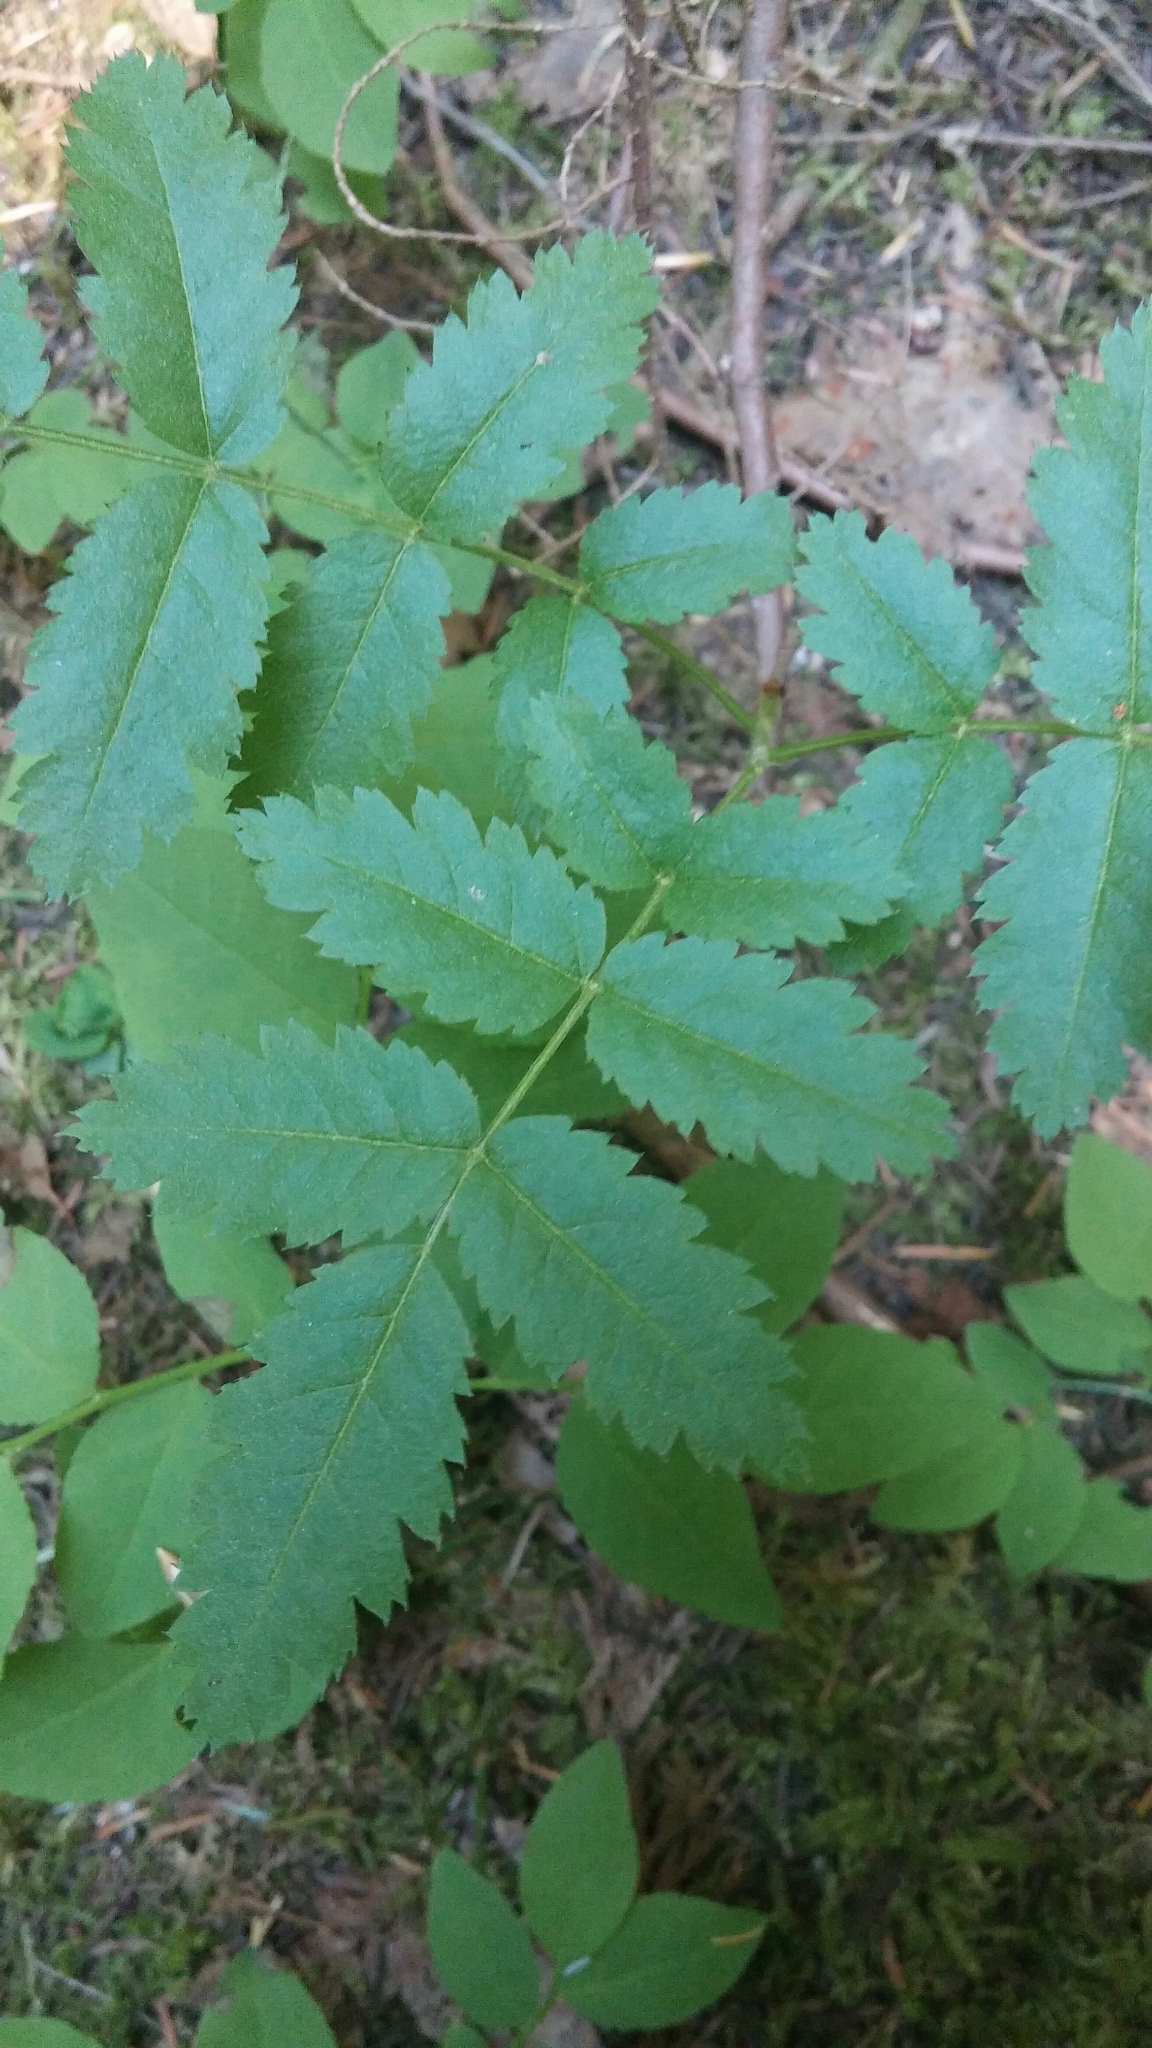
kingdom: Plantae
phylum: Tracheophyta
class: Magnoliopsida
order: Rosales
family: Rosaceae
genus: Sorbus
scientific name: Sorbus scopulina
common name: Greene's mountain-ash
